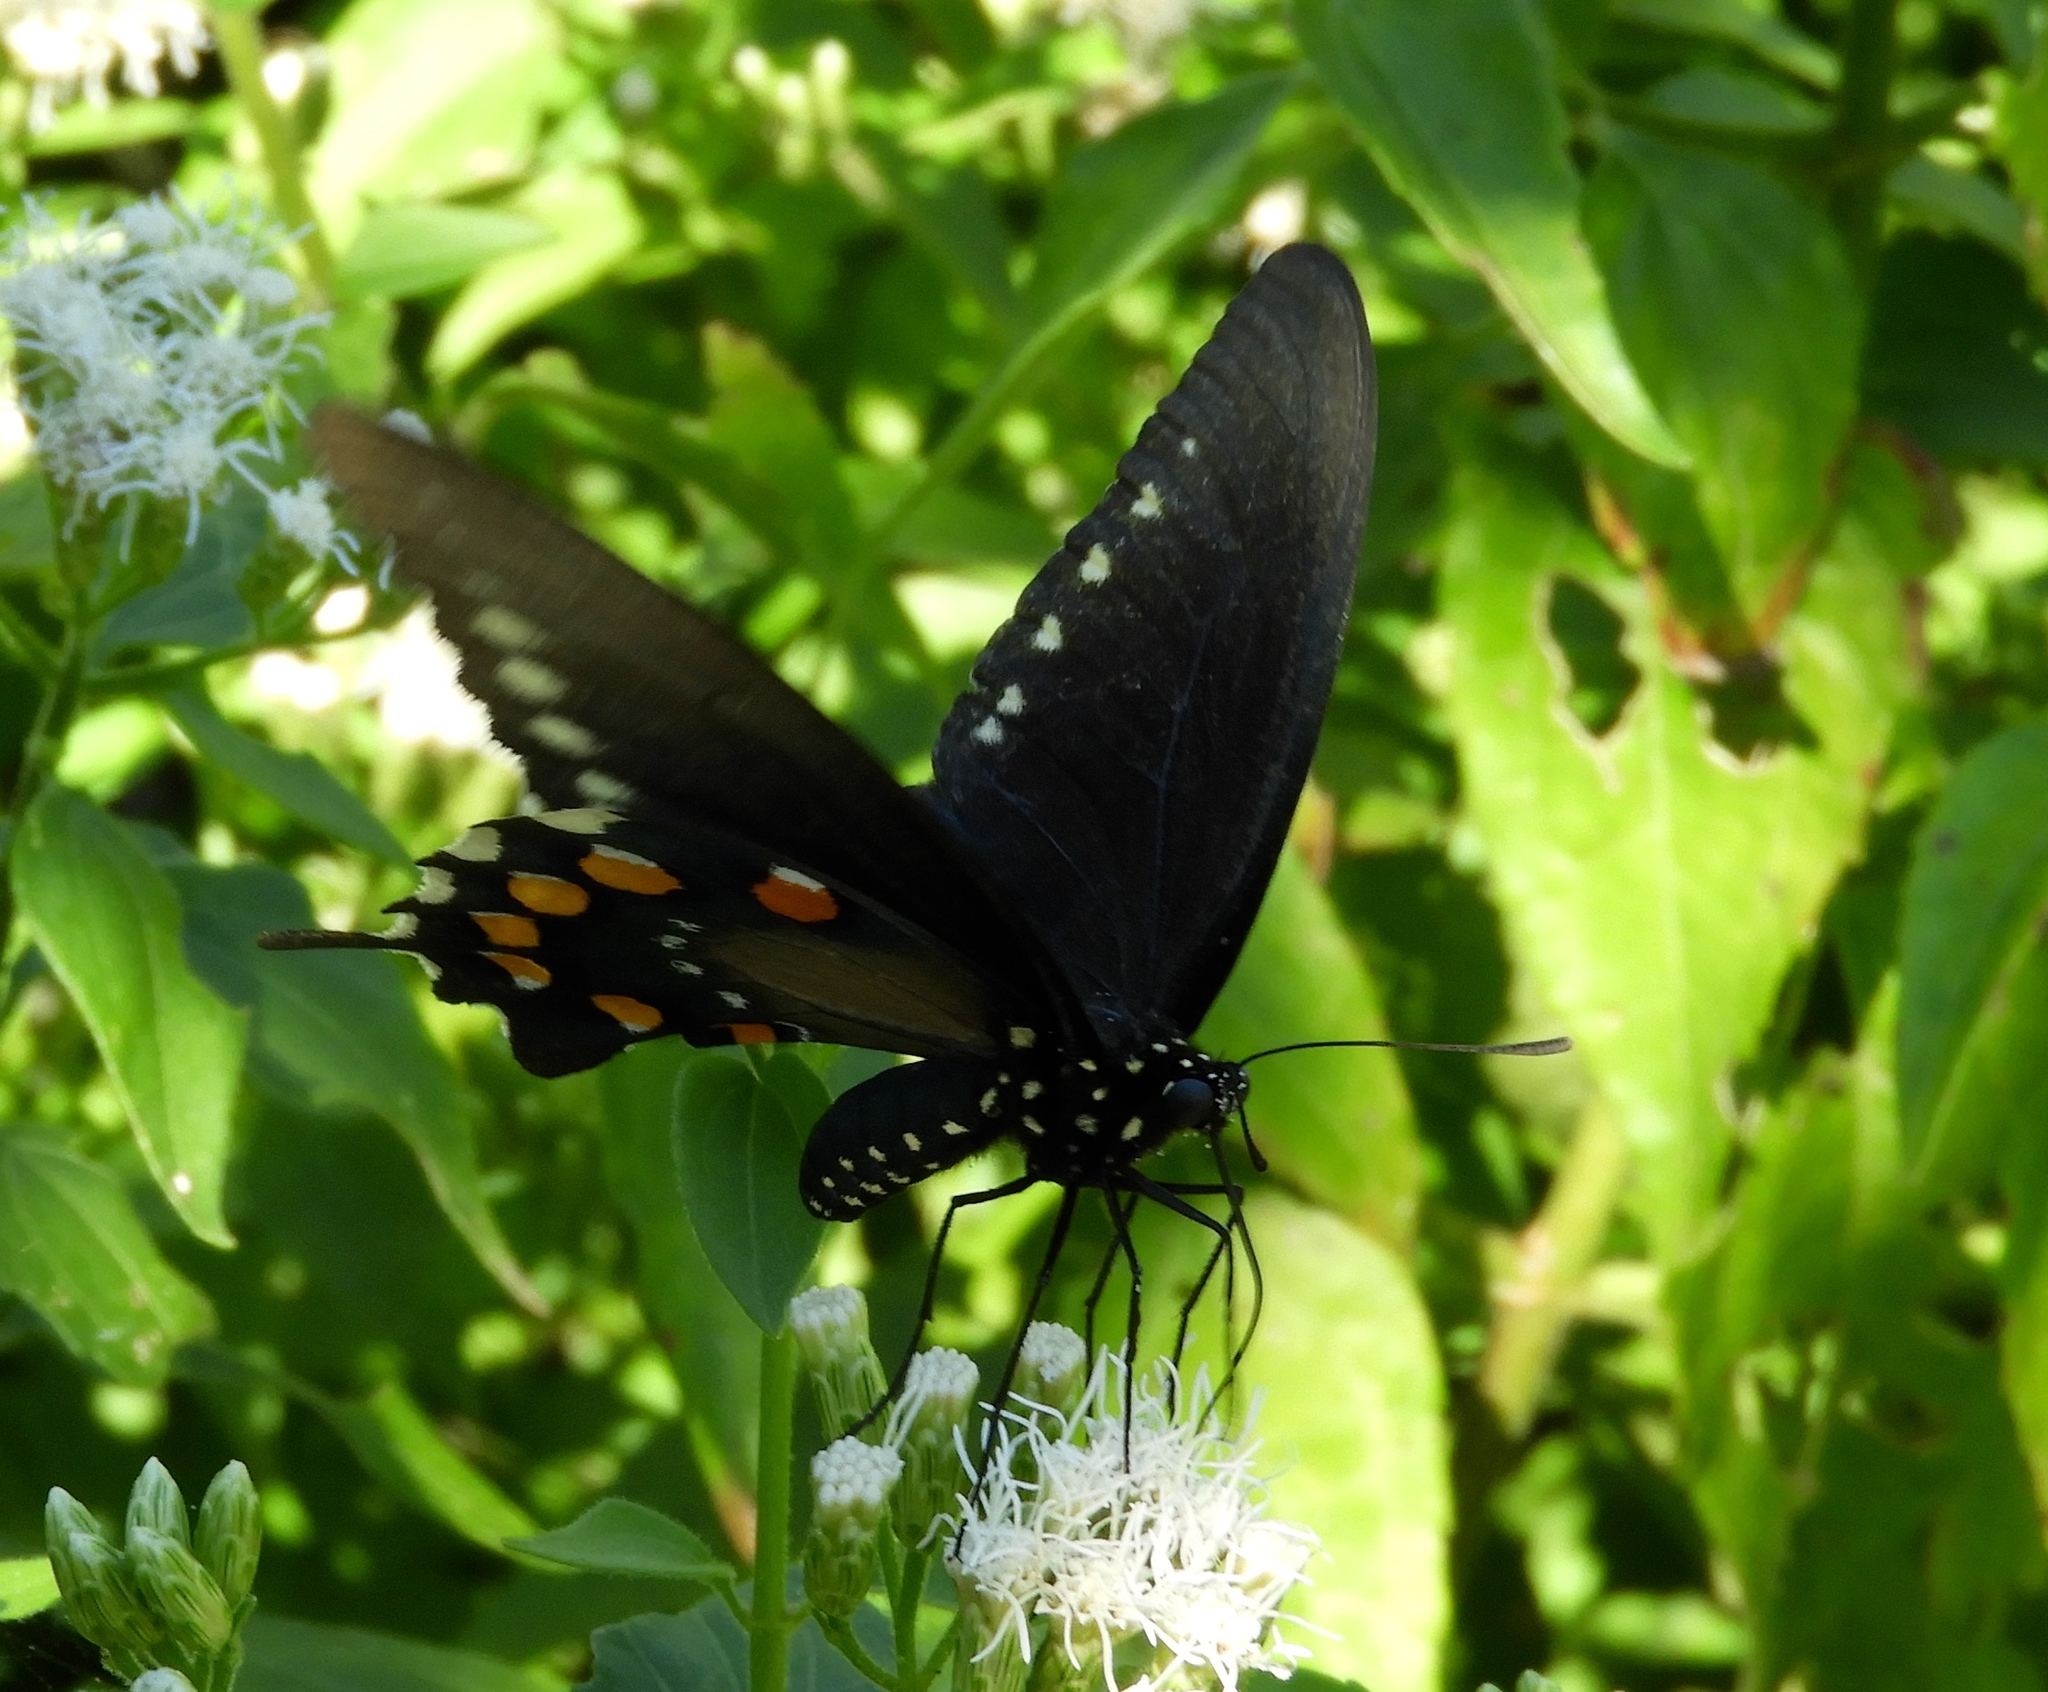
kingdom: Animalia
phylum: Arthropoda
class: Insecta
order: Lepidoptera
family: Papilionidae
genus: Battus
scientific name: Battus philenor
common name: Pipevine swallowtail
